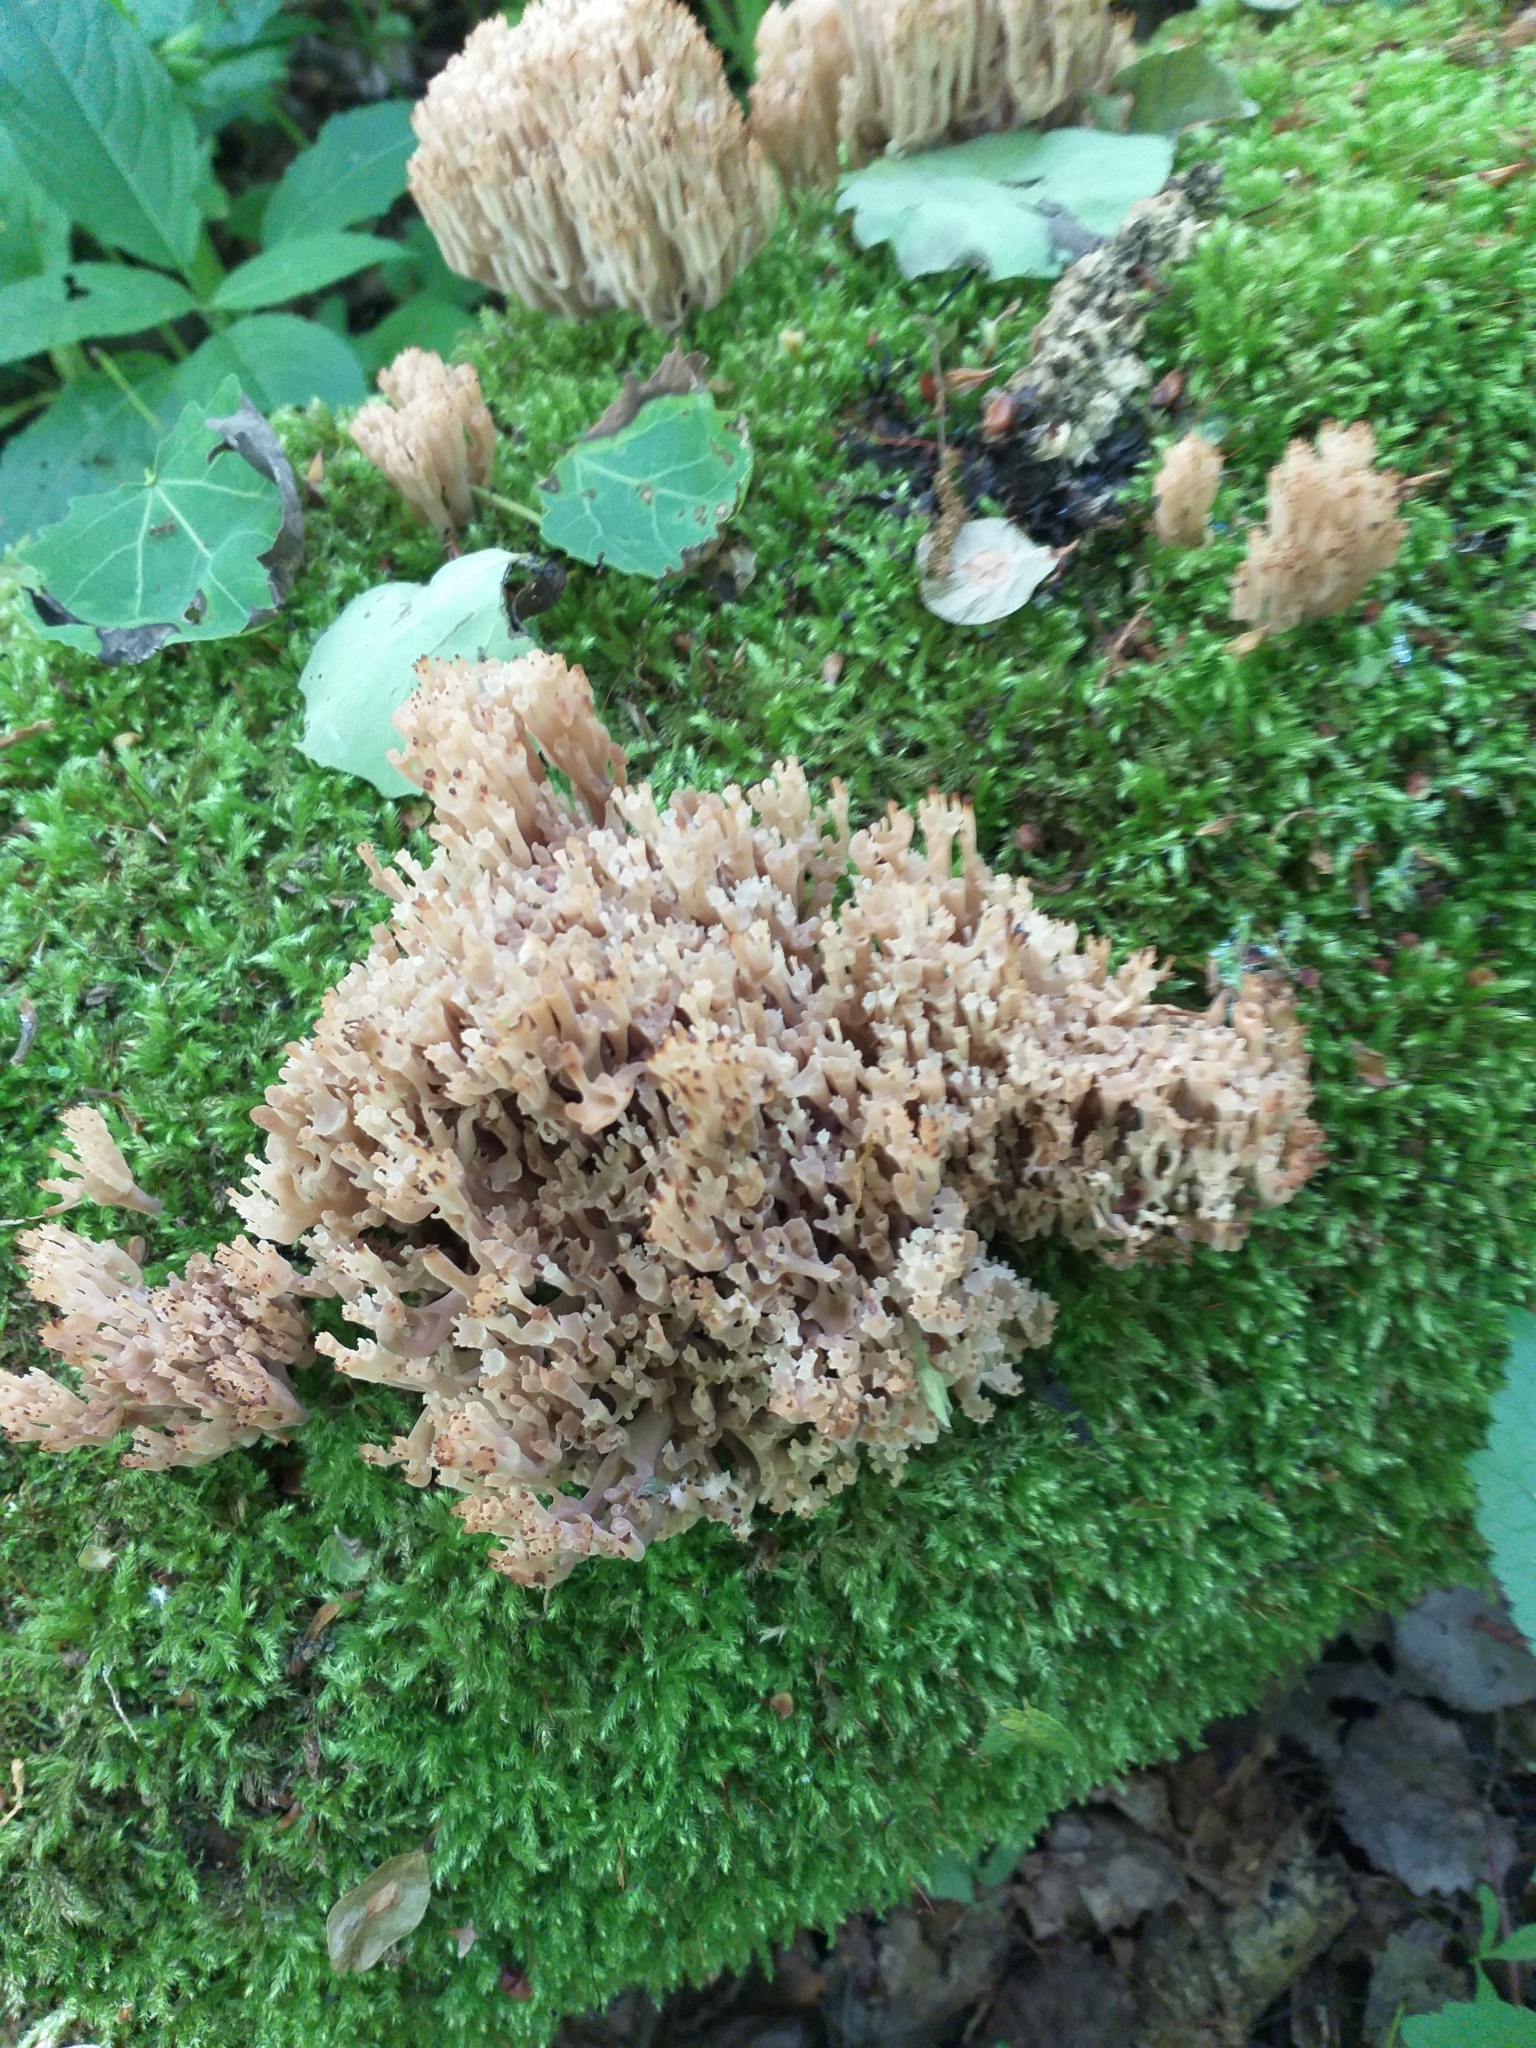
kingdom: Fungi
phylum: Basidiomycota
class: Agaricomycetes
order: Russulales
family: Auriscalpiaceae
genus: Artomyces
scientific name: Artomyces pyxidatus
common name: Crown-tipped coral fungus
